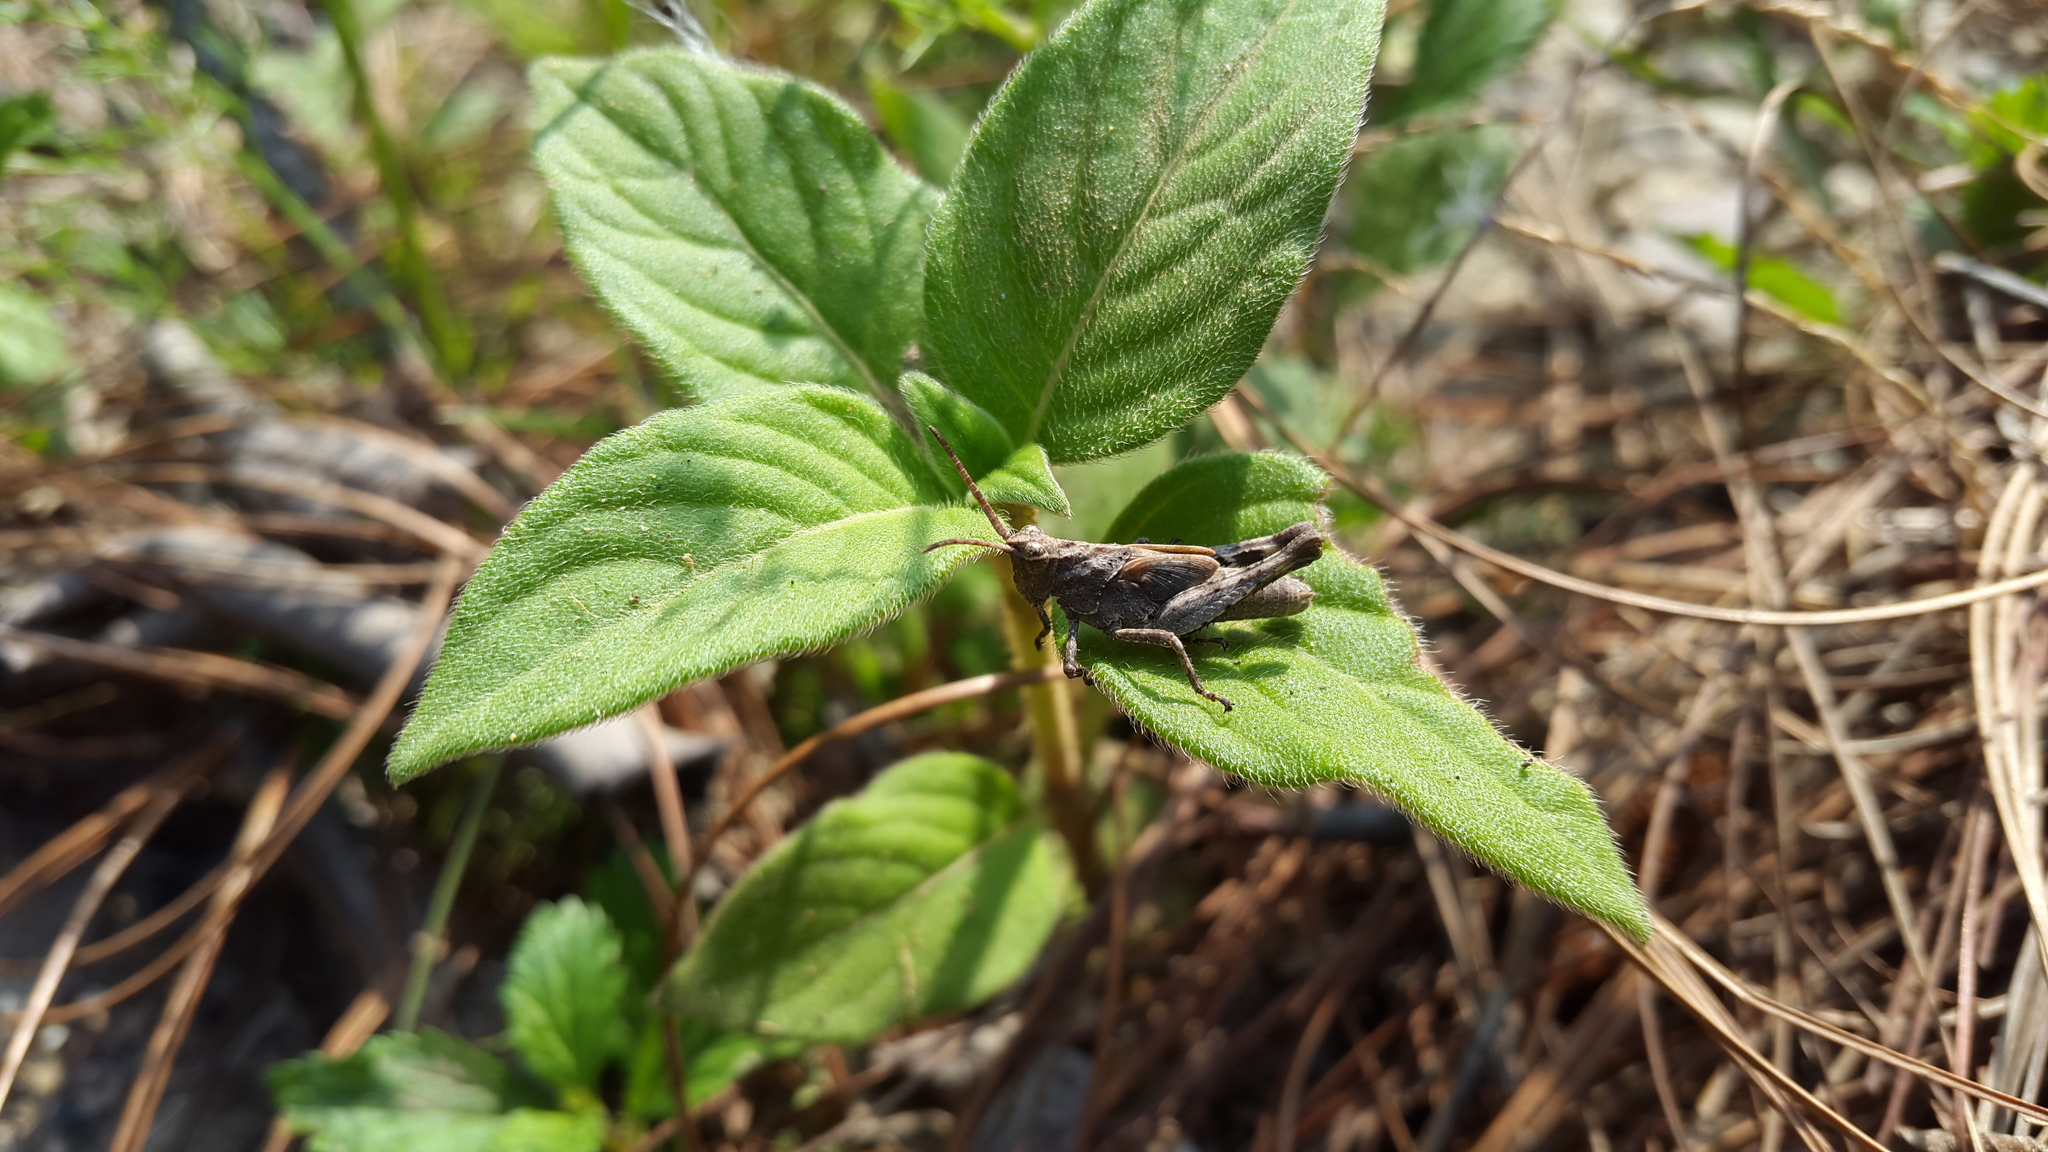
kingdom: Animalia
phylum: Arthropoda
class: Insecta
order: Orthoptera
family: Acrididae
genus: Machaerocera
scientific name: Machaerocera mexicana
